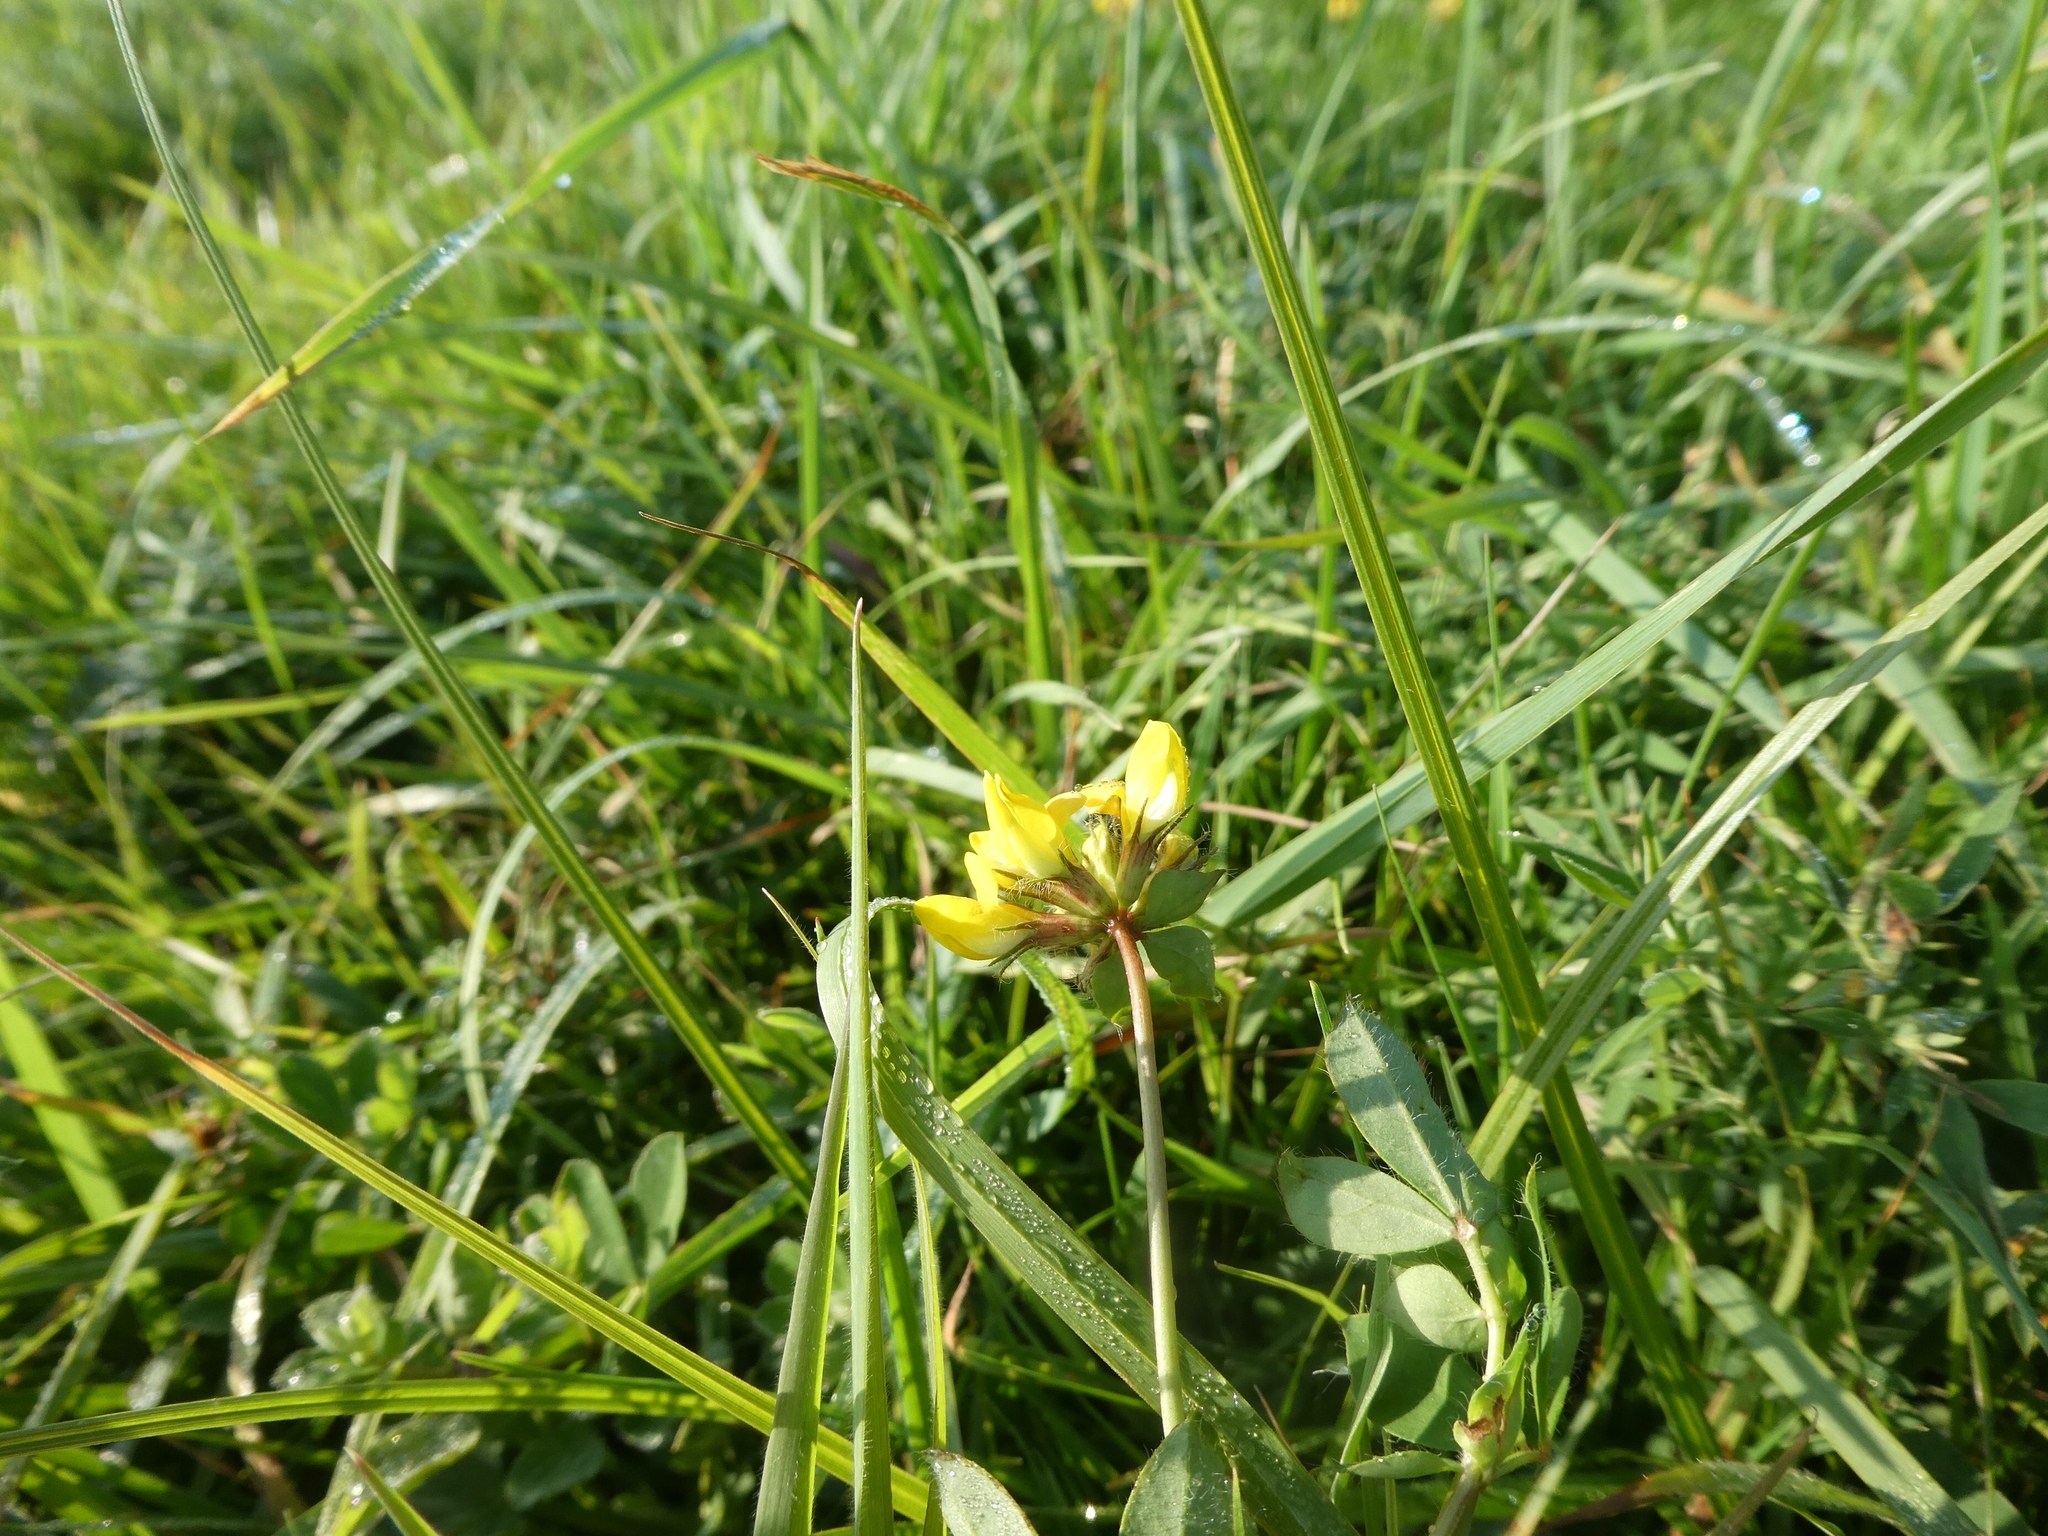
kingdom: Plantae
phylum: Tracheophyta
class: Magnoliopsida
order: Fabales
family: Fabaceae
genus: Lotus
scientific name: Lotus corniculatus
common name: Common bird's-foot-trefoil
